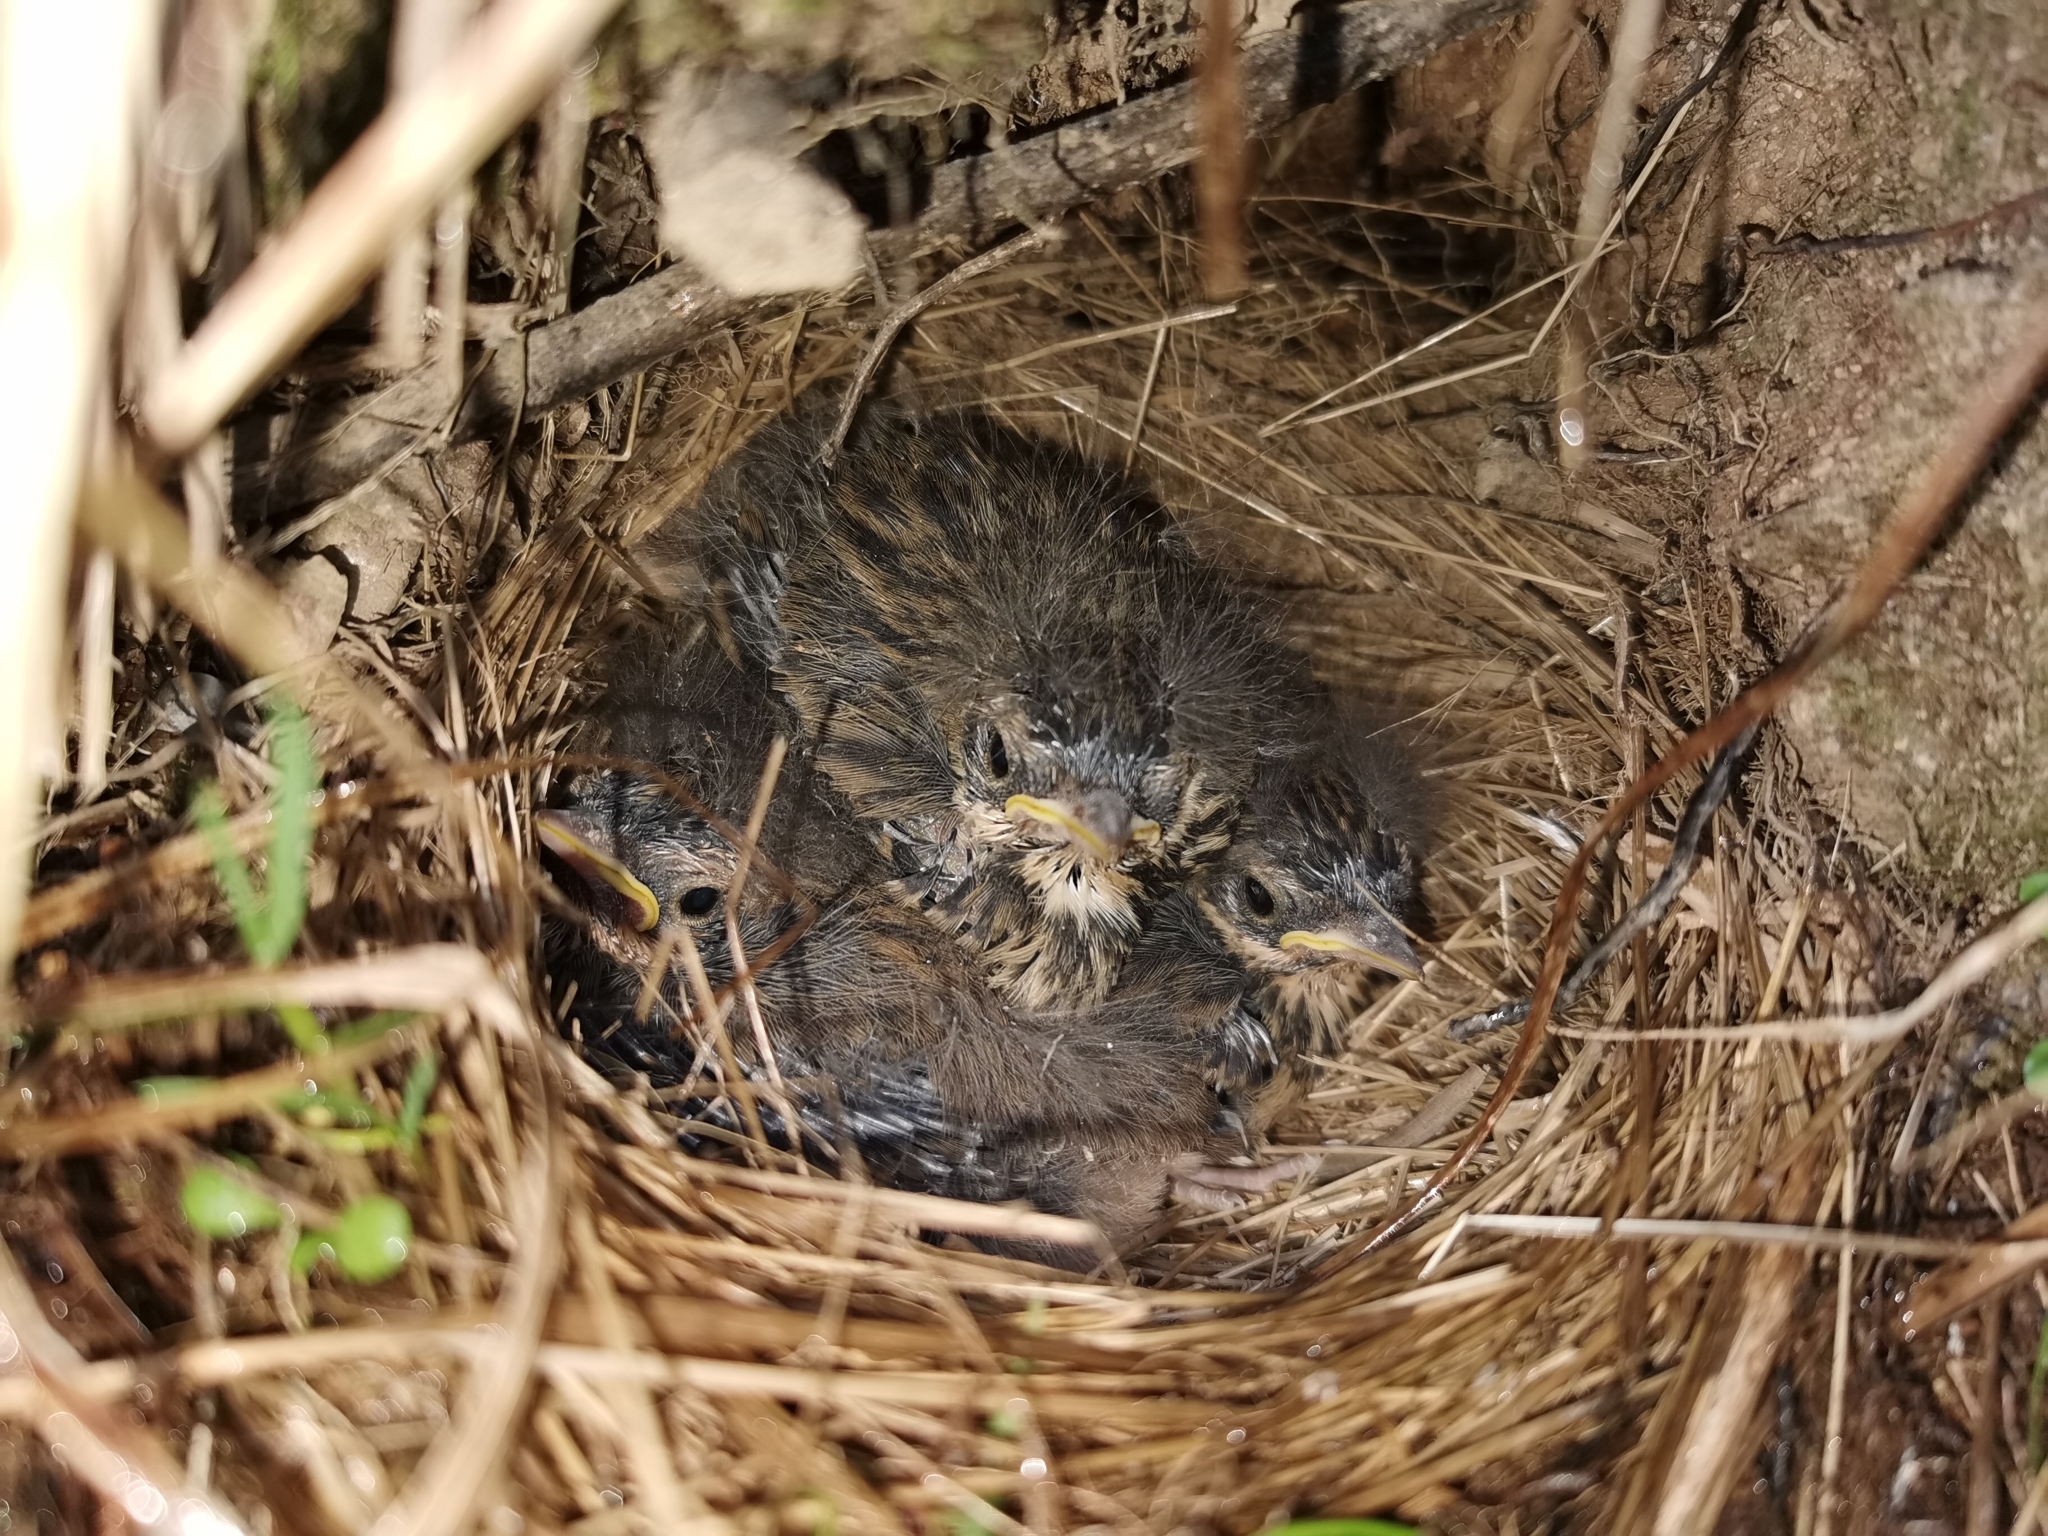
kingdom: Animalia
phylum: Chordata
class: Aves
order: Passeriformes
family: Motacillidae
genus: Anthus
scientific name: Anthus hodgsoni
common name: Olive-backed pipit
